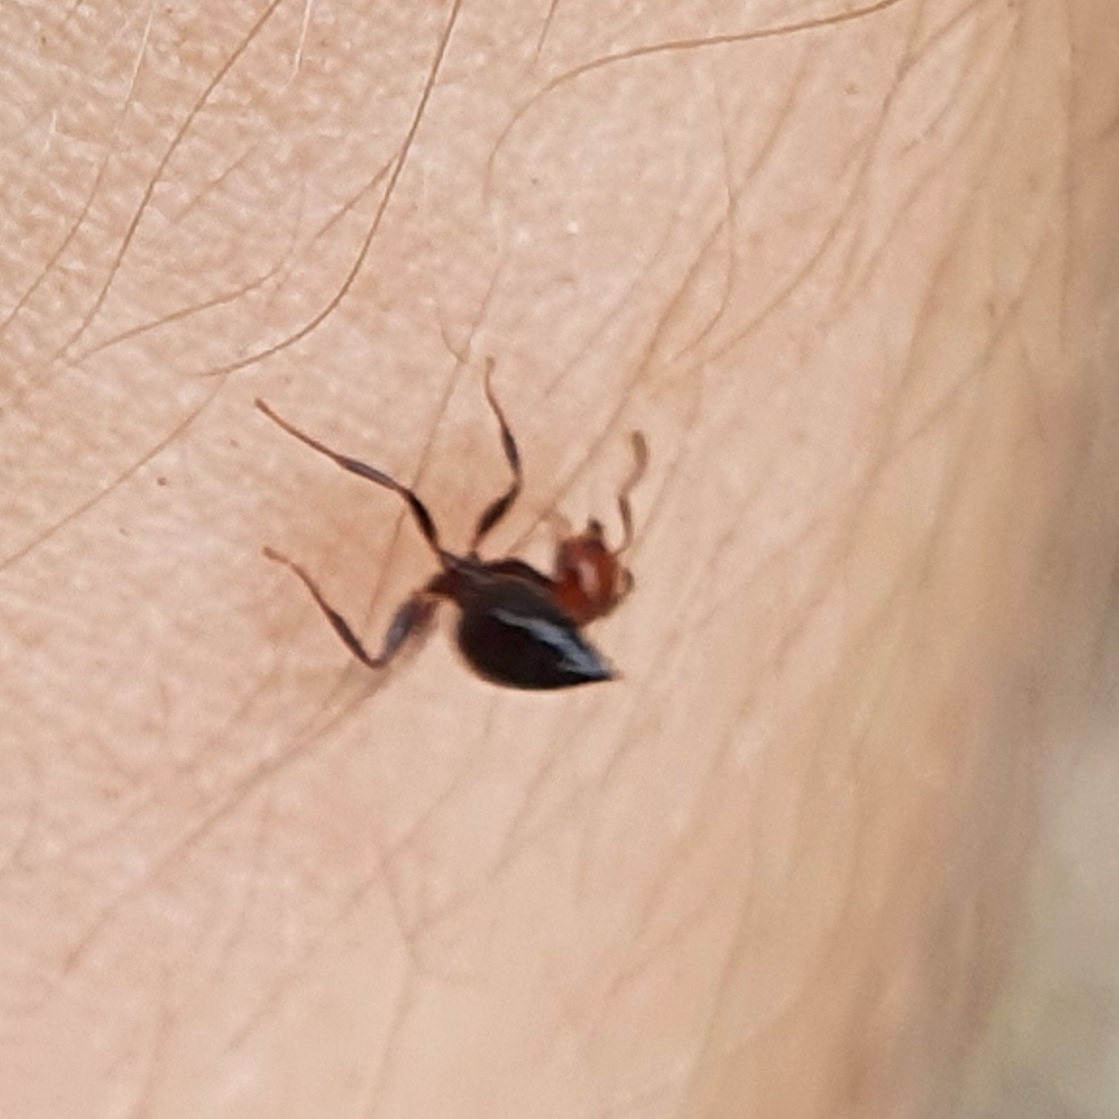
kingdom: Animalia
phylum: Arthropoda
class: Insecta
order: Hymenoptera
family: Formicidae
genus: Crematogaster
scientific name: Crematogaster scutellaris
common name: Fourmi du liège
